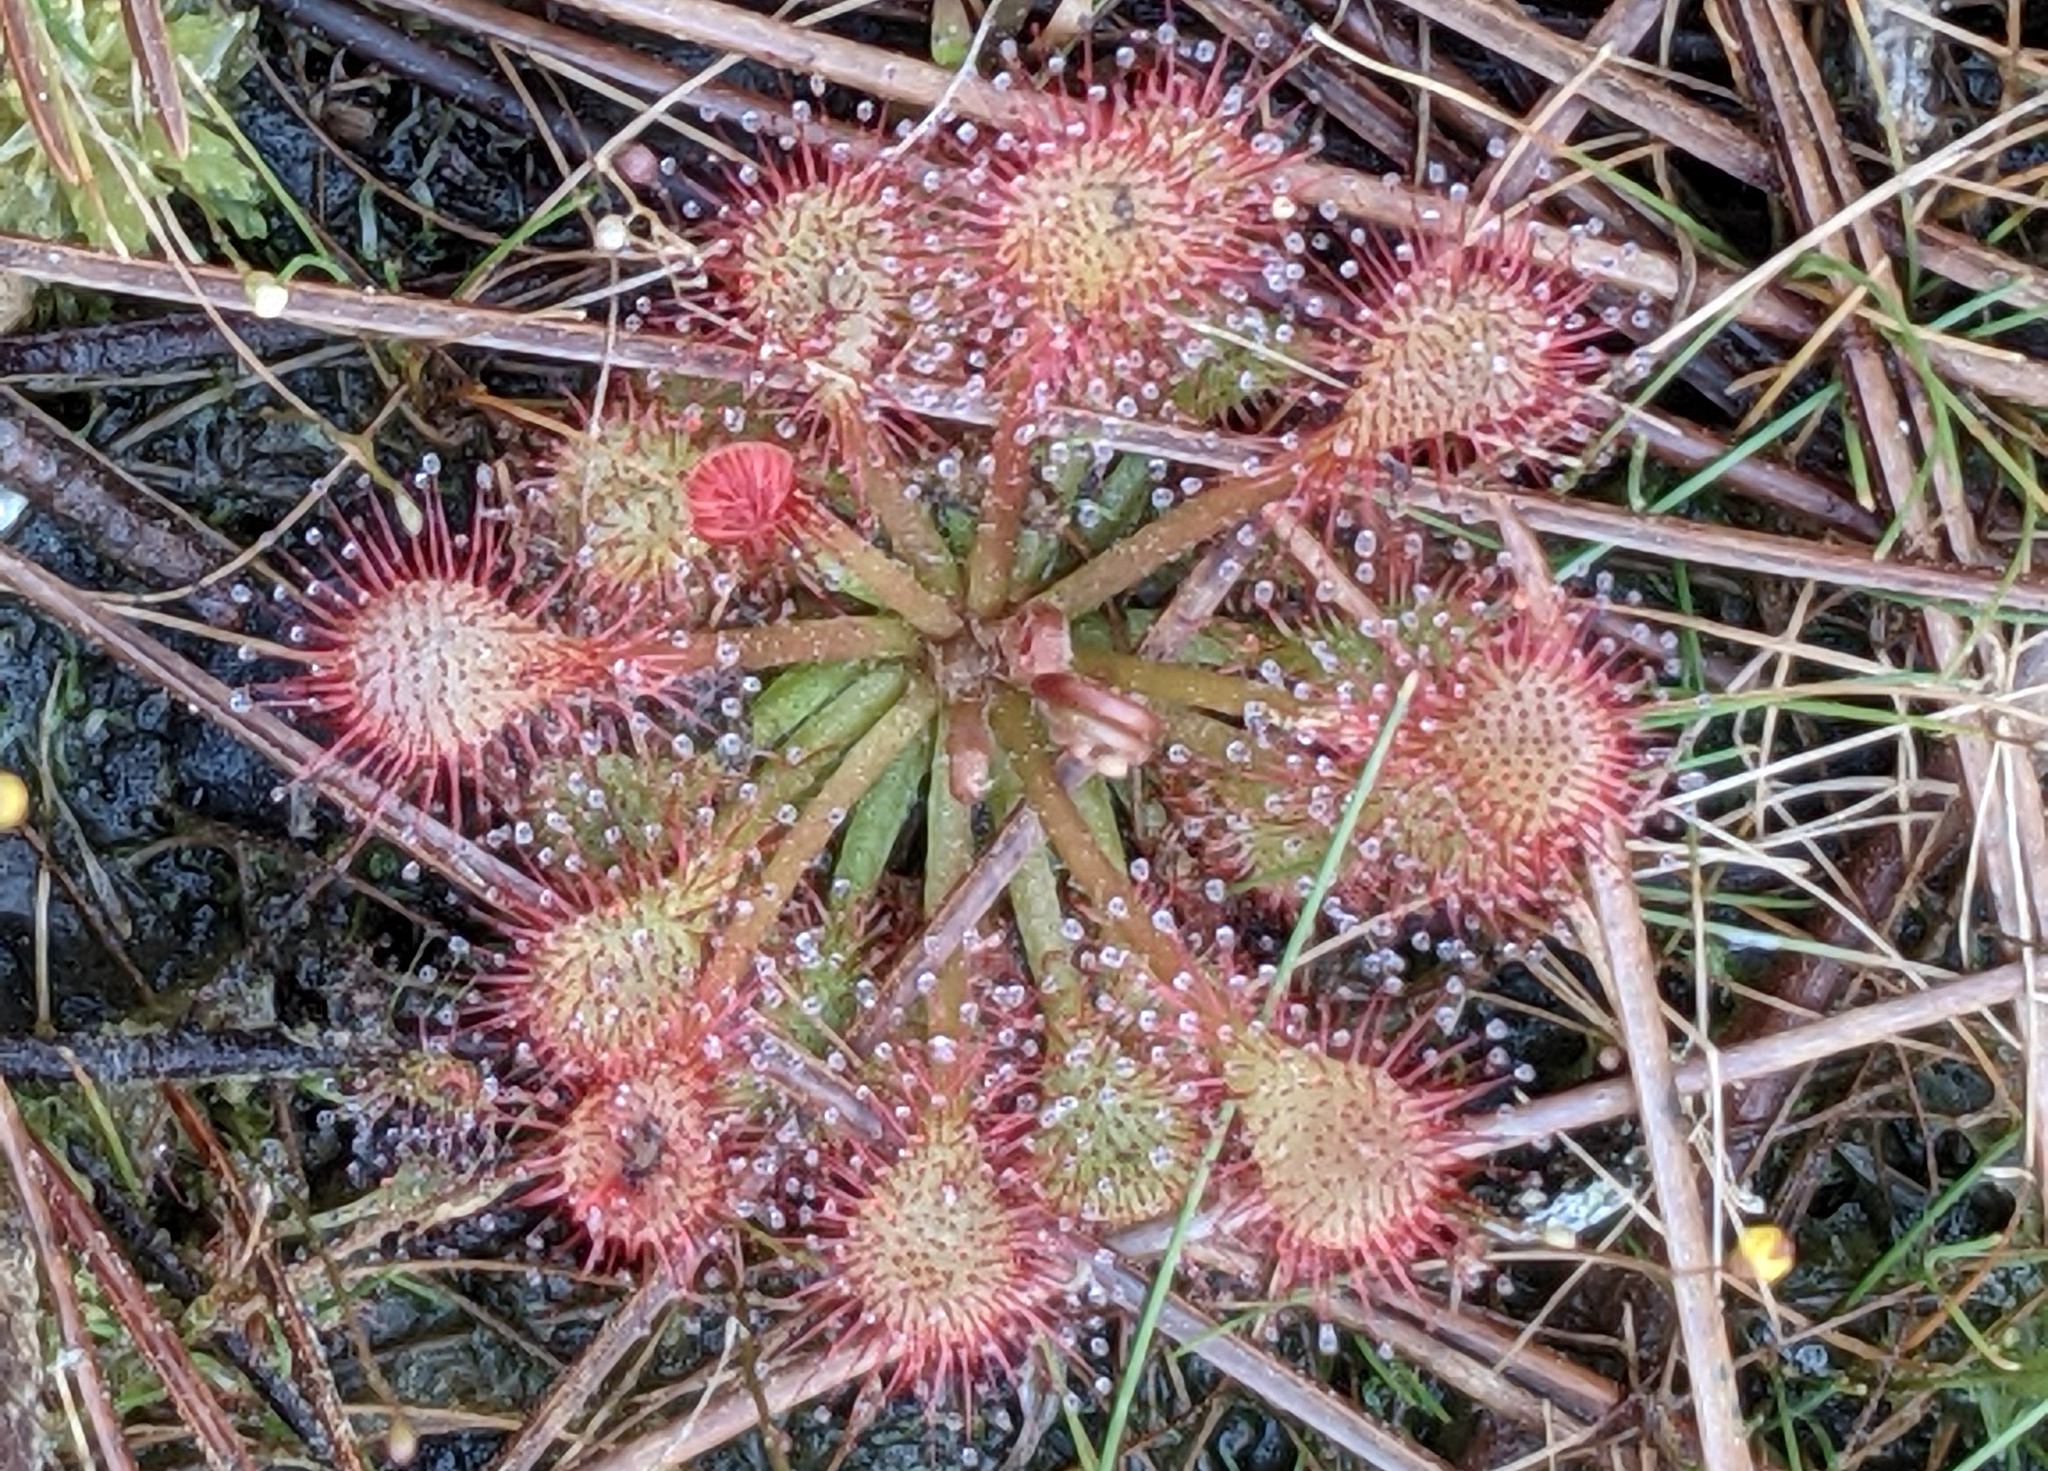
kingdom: Plantae
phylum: Tracheophyta
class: Magnoliopsida
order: Caryophyllales
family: Droseraceae
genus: Drosera
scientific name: Drosera capillaris
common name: Pink sundew
